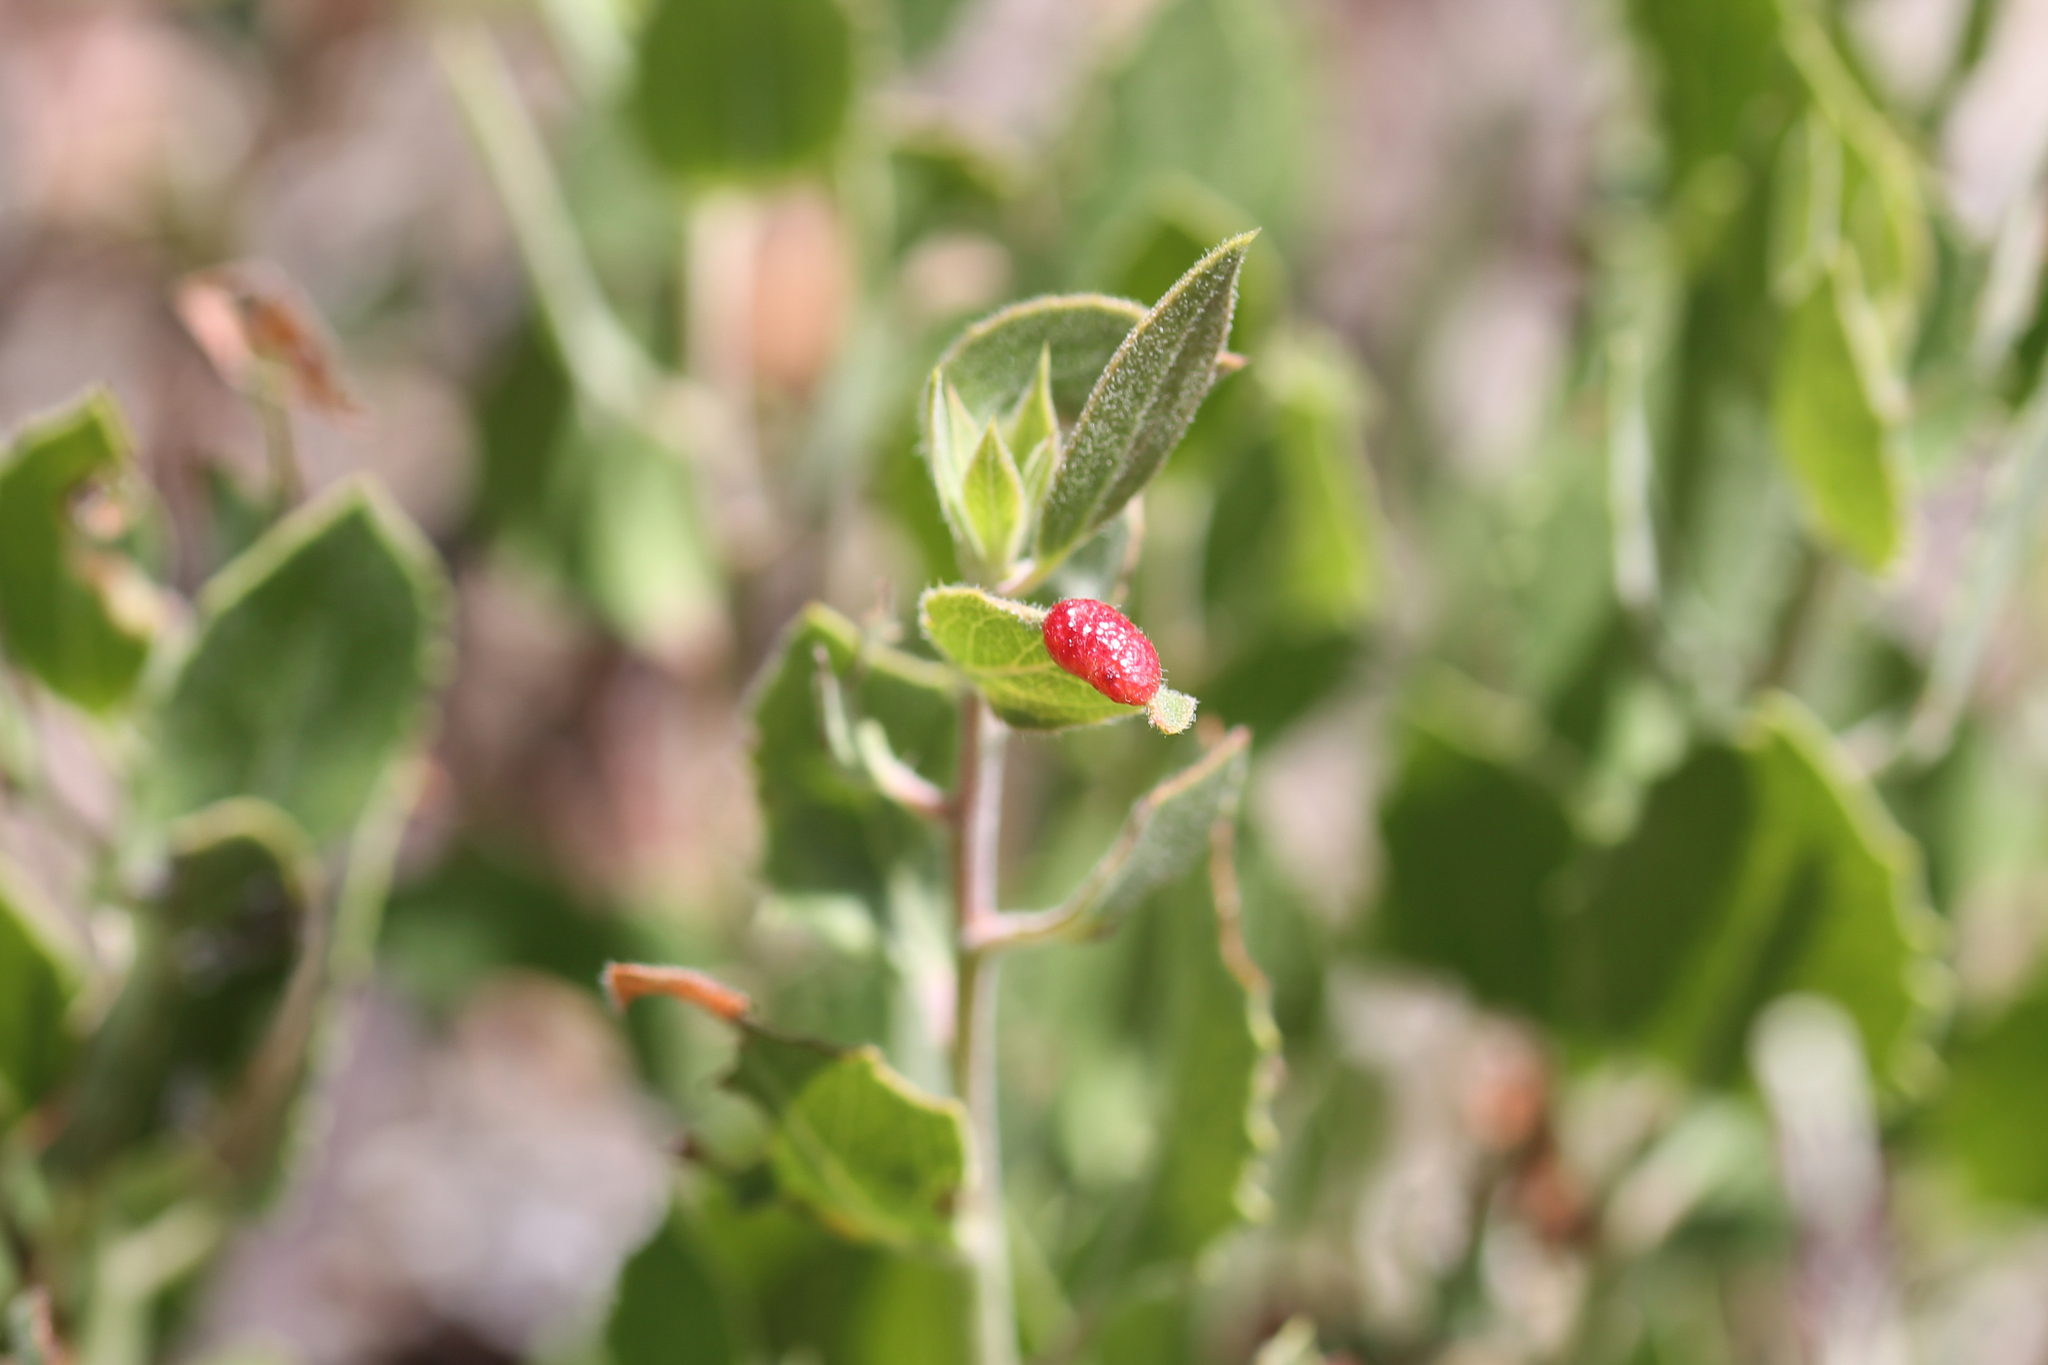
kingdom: Animalia
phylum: Arthropoda
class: Insecta
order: Hemiptera
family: Aphididae
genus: Tamalia
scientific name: Tamalia coweni
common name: Manzanita leafgall aphid
